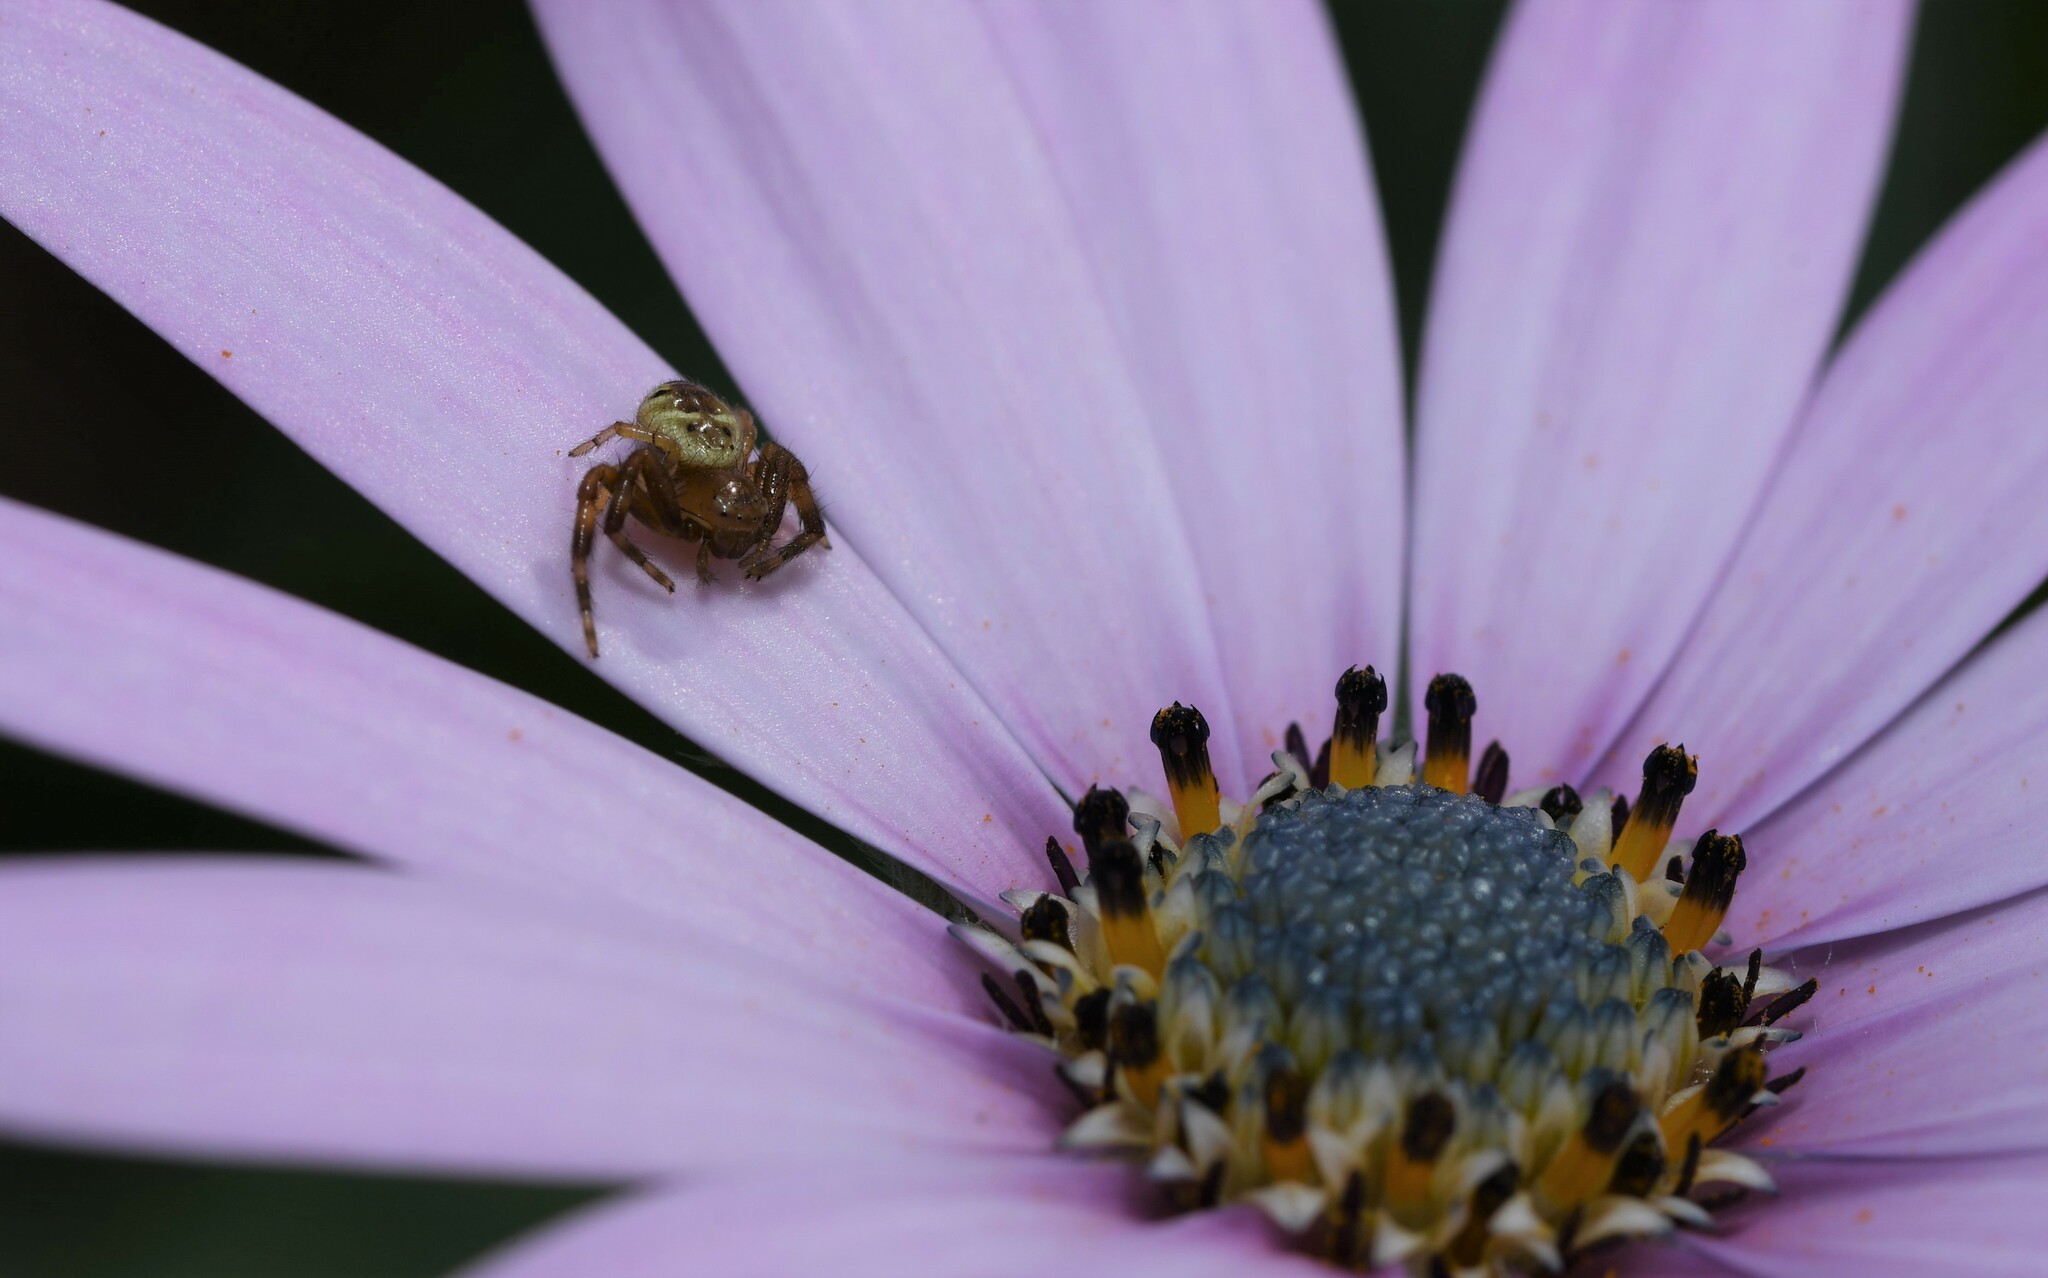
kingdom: Animalia
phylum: Arthropoda
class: Arachnida
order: Araneae
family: Thomisidae
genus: Synema
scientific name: Synema globosum
